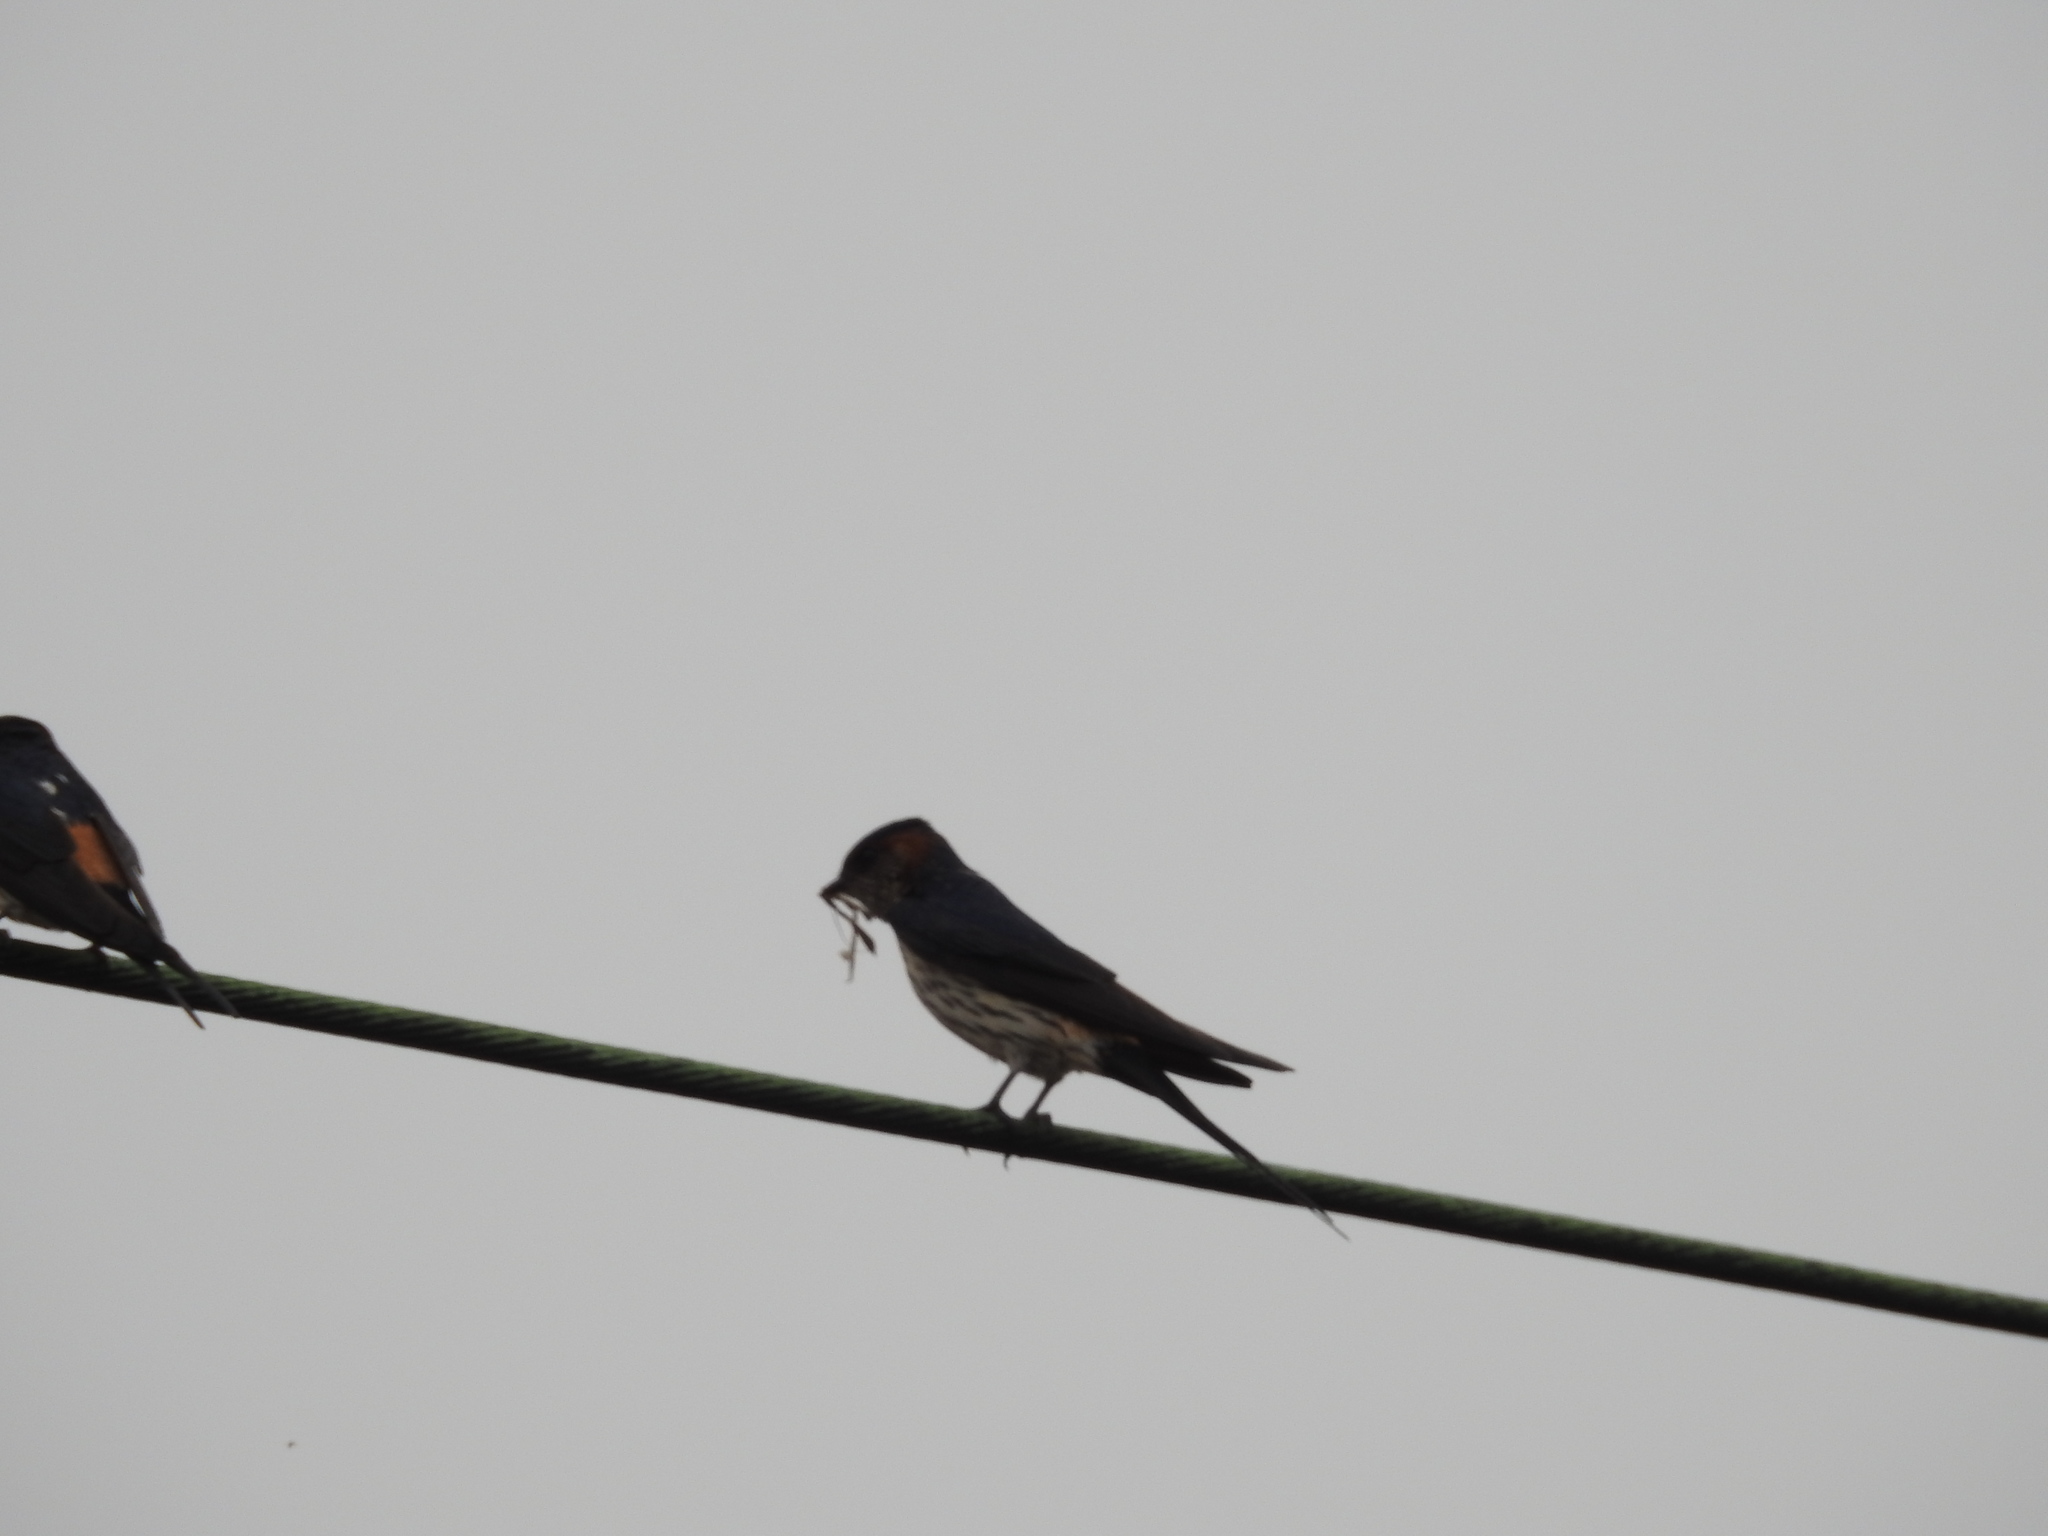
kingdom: Animalia
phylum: Chordata
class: Aves
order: Passeriformes
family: Hirundinidae
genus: Cecropis
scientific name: Cecropis striolata
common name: Striated swallow
